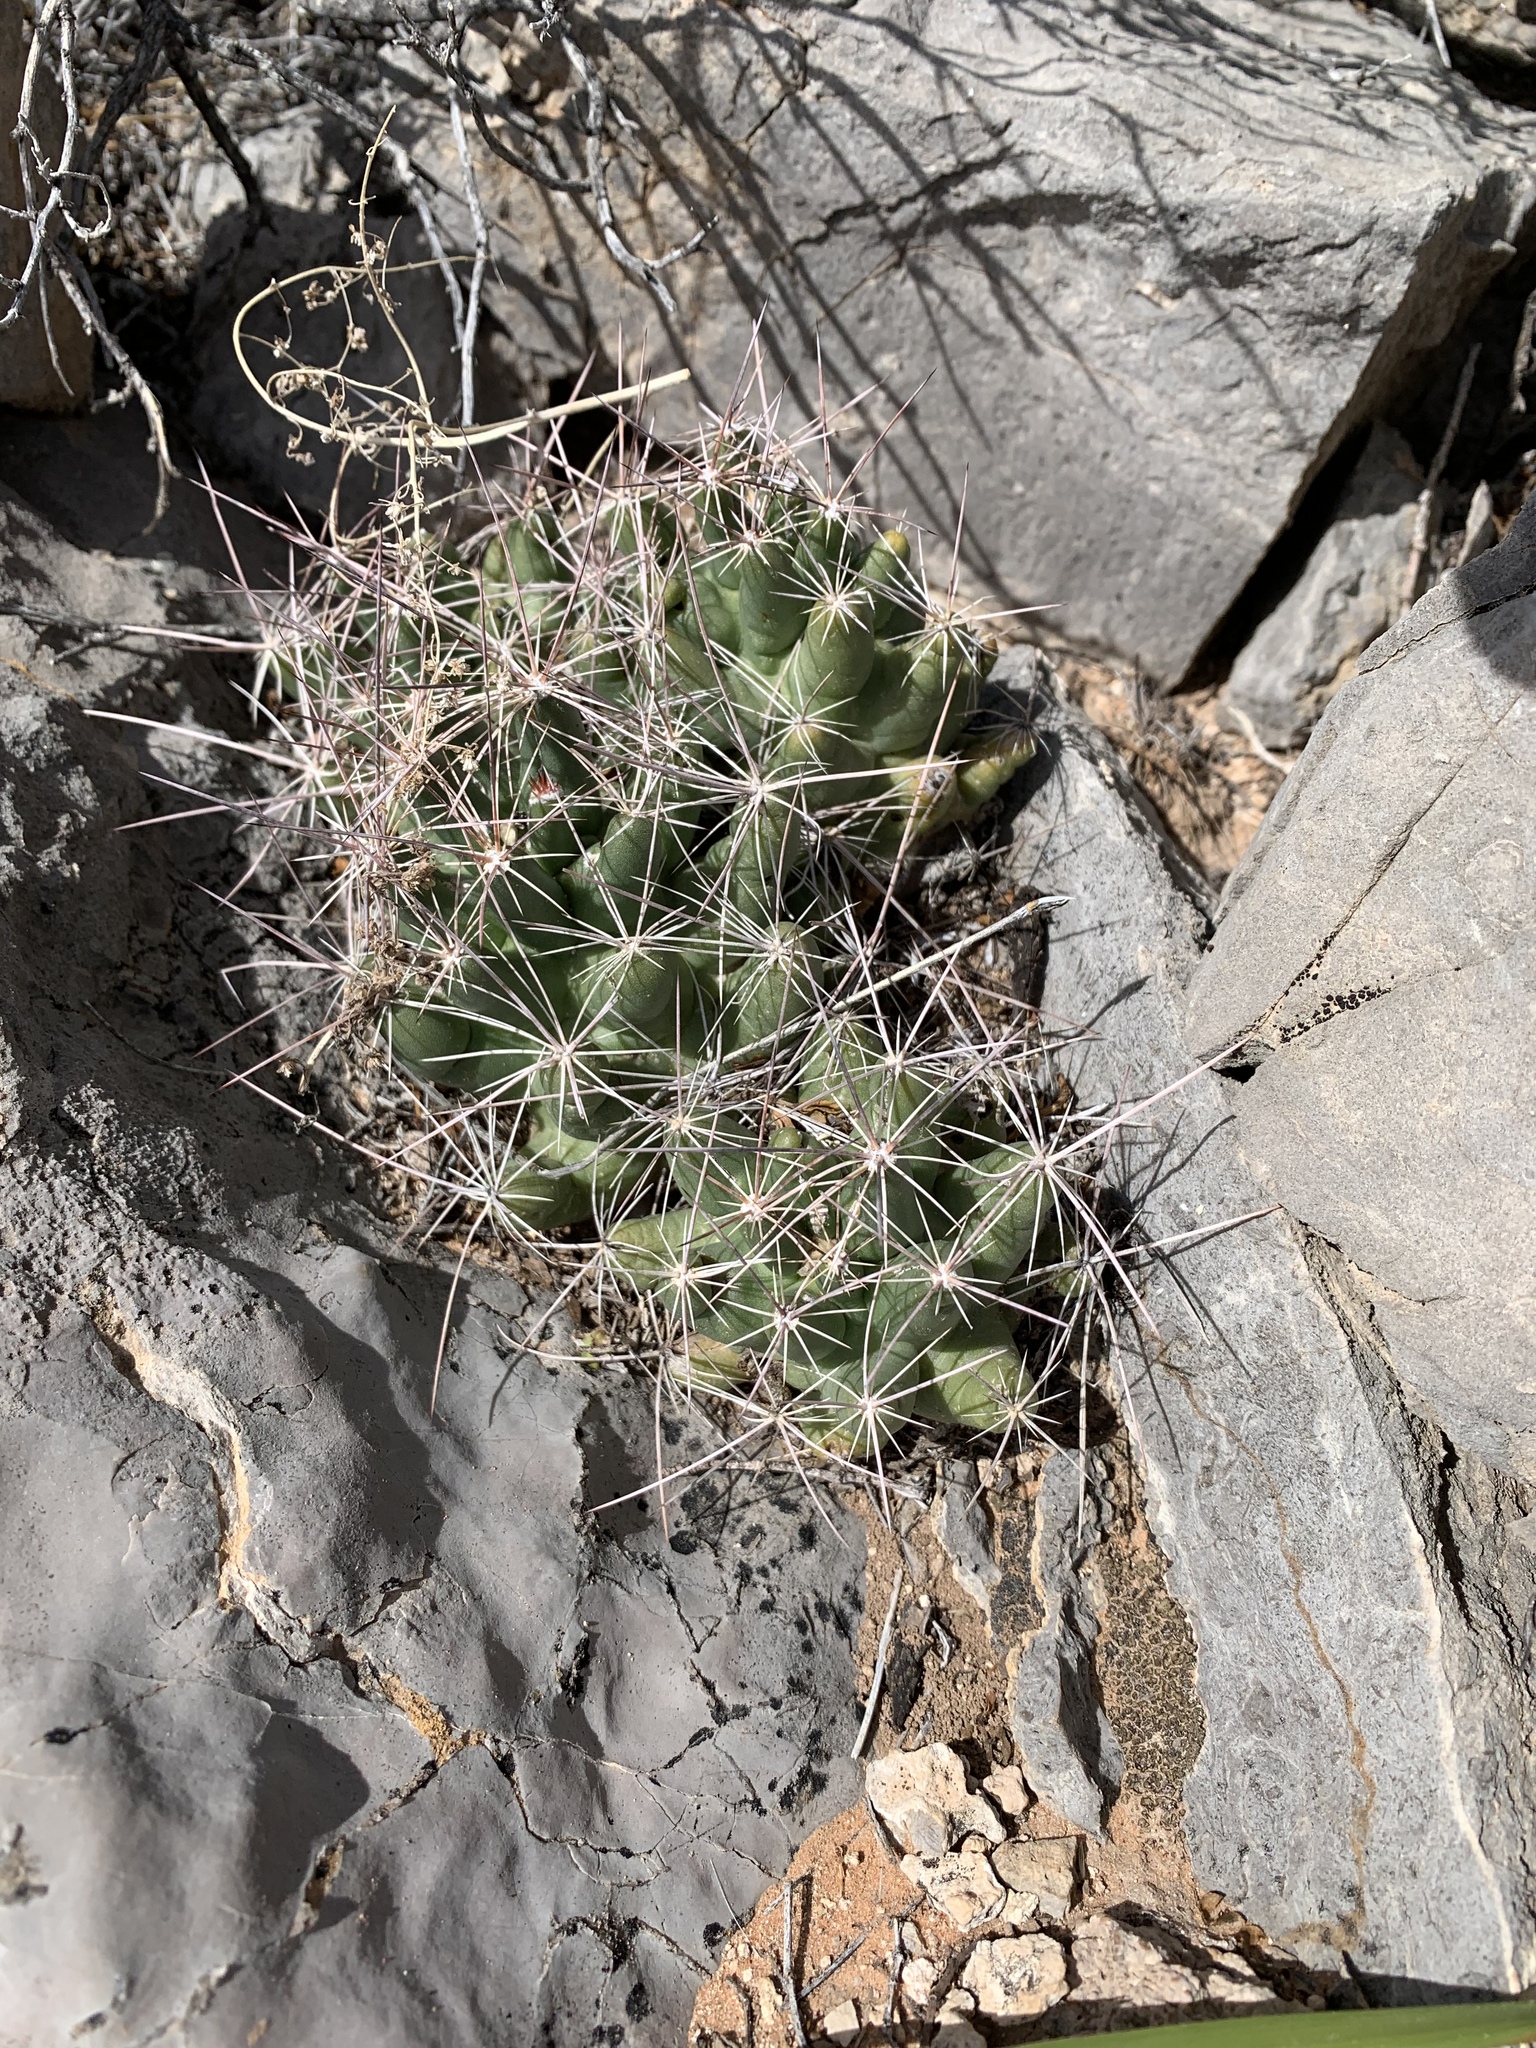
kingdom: Plantae
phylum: Tracheophyta
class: Magnoliopsida
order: Caryophyllales
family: Cactaceae
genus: Coryphantha
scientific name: Coryphantha macromeris
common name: Nipple beehive cactus
